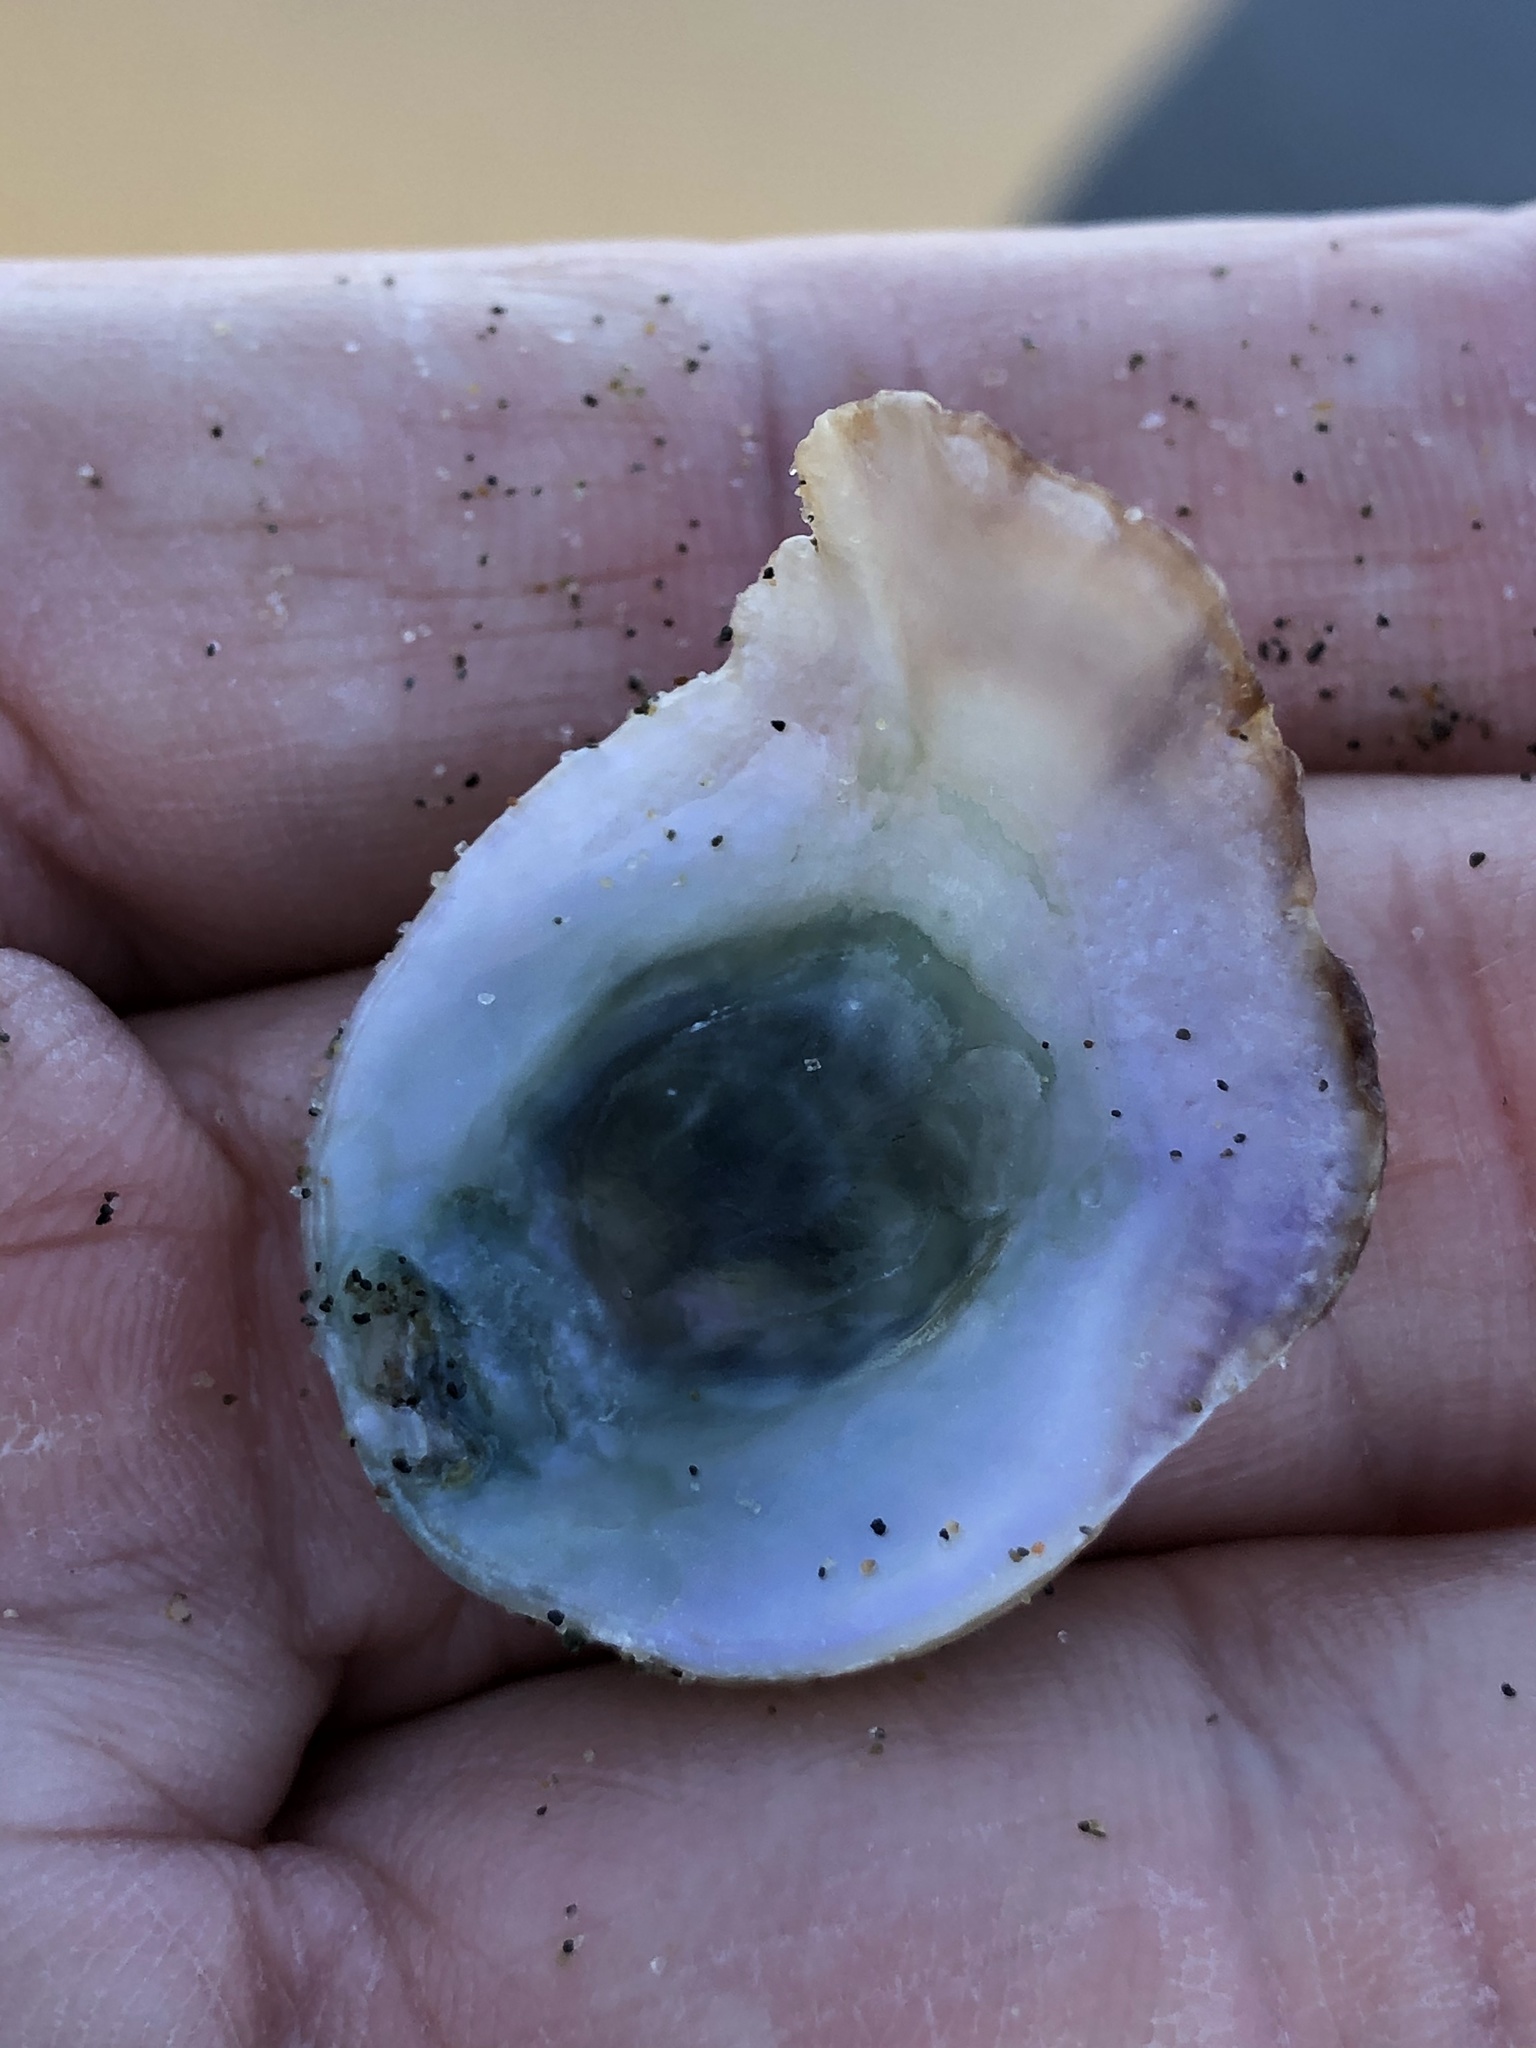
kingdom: Animalia
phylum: Mollusca
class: Bivalvia
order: Pectinida
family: Anomiidae
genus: Pododesmus
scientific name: Pododesmus macrochisma
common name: Alaska jingle
